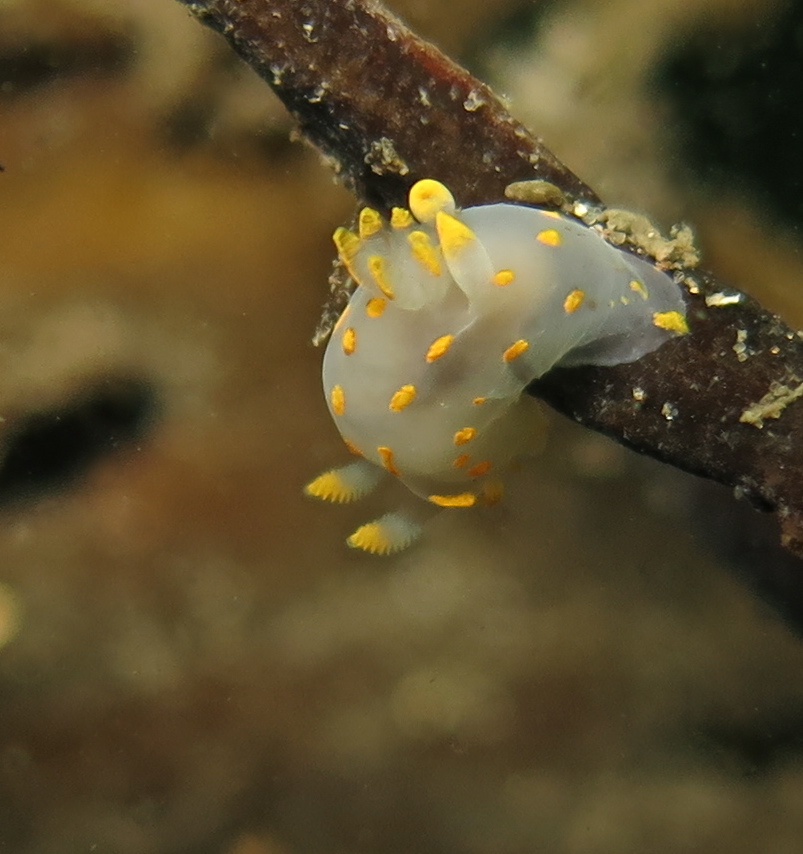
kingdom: Animalia
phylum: Mollusca
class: Gastropoda
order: Nudibranchia
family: Polyceridae
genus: Polycera
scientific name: Polycera quadrilineata
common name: Four-striped polycera
